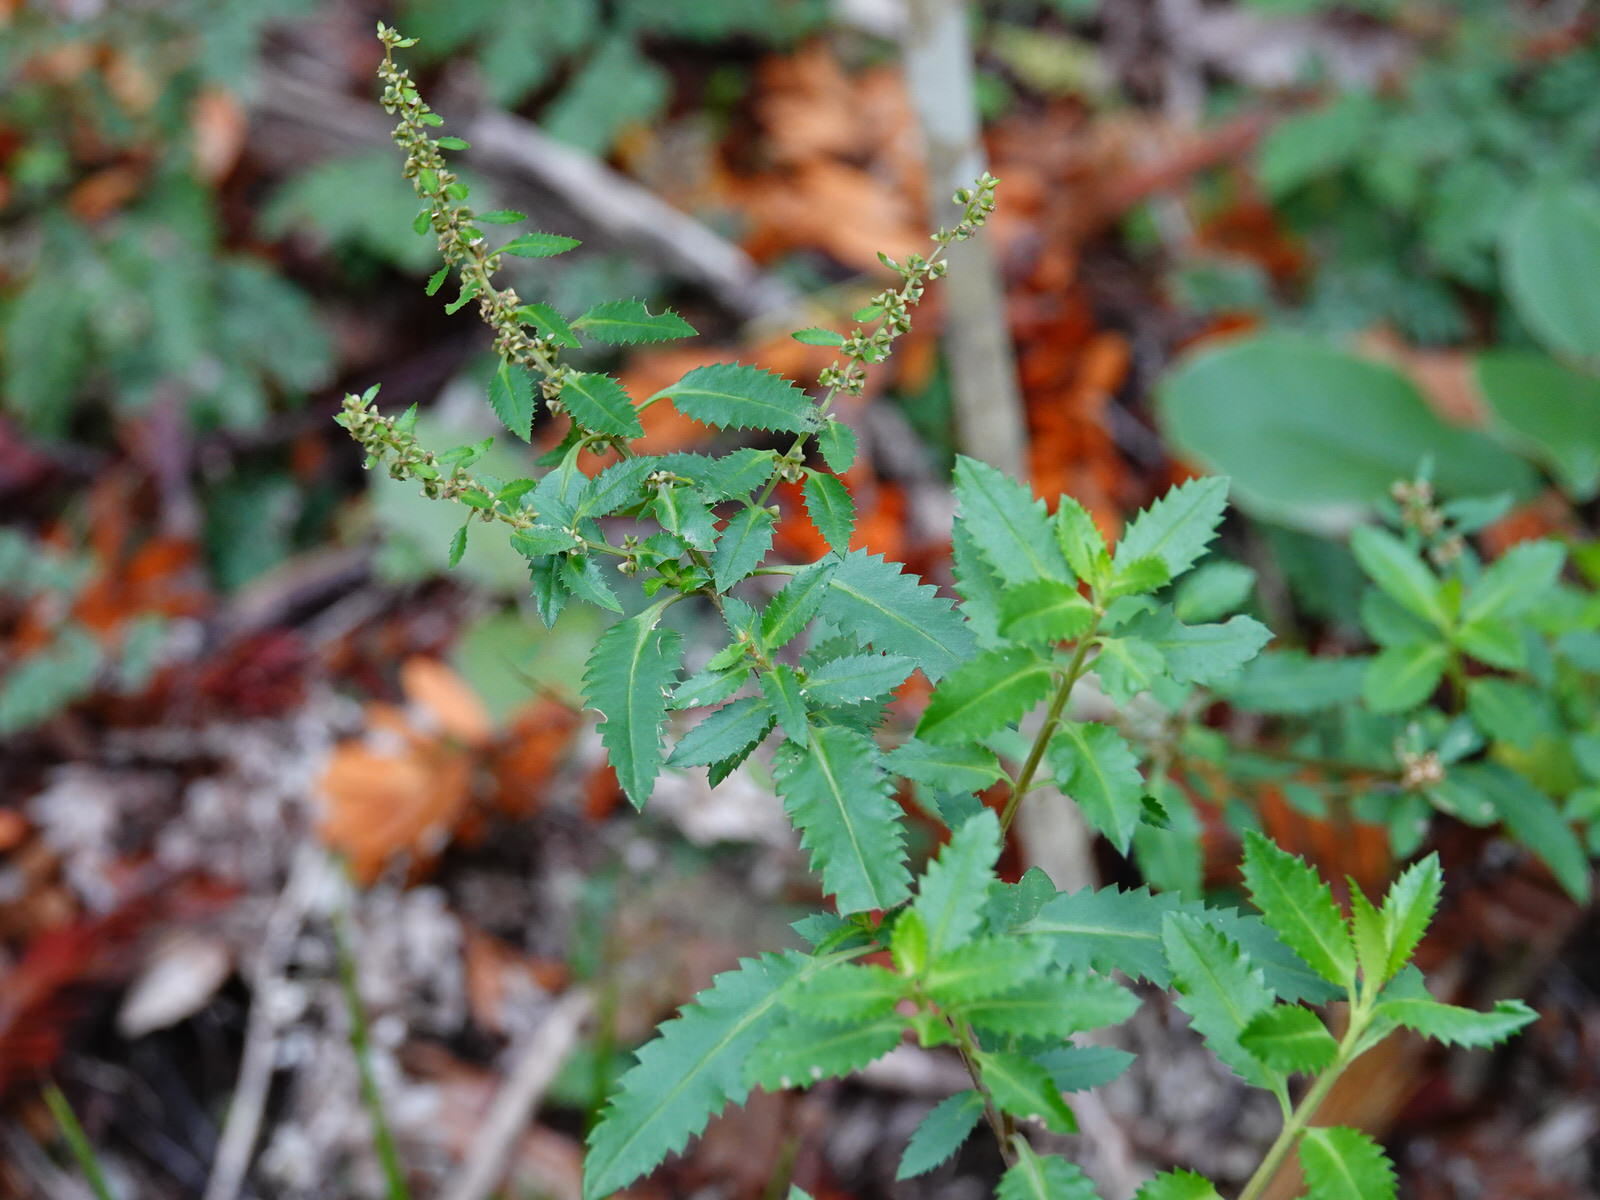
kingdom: Plantae
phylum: Tracheophyta
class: Magnoliopsida
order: Saxifragales
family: Haloragaceae
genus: Haloragis
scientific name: Haloragis erecta
